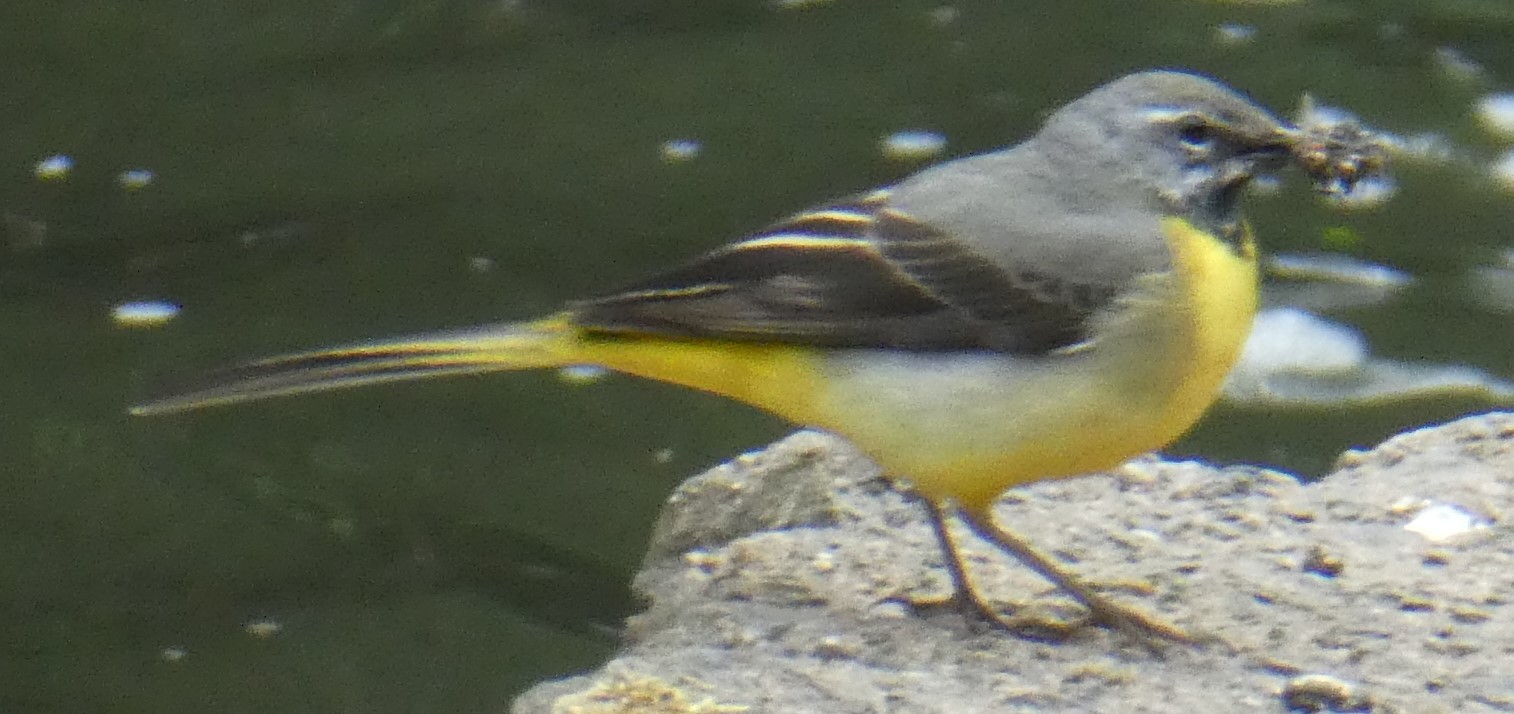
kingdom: Animalia
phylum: Chordata
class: Aves
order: Passeriformes
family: Motacillidae
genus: Motacilla
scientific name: Motacilla cinerea
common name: Grey wagtail
